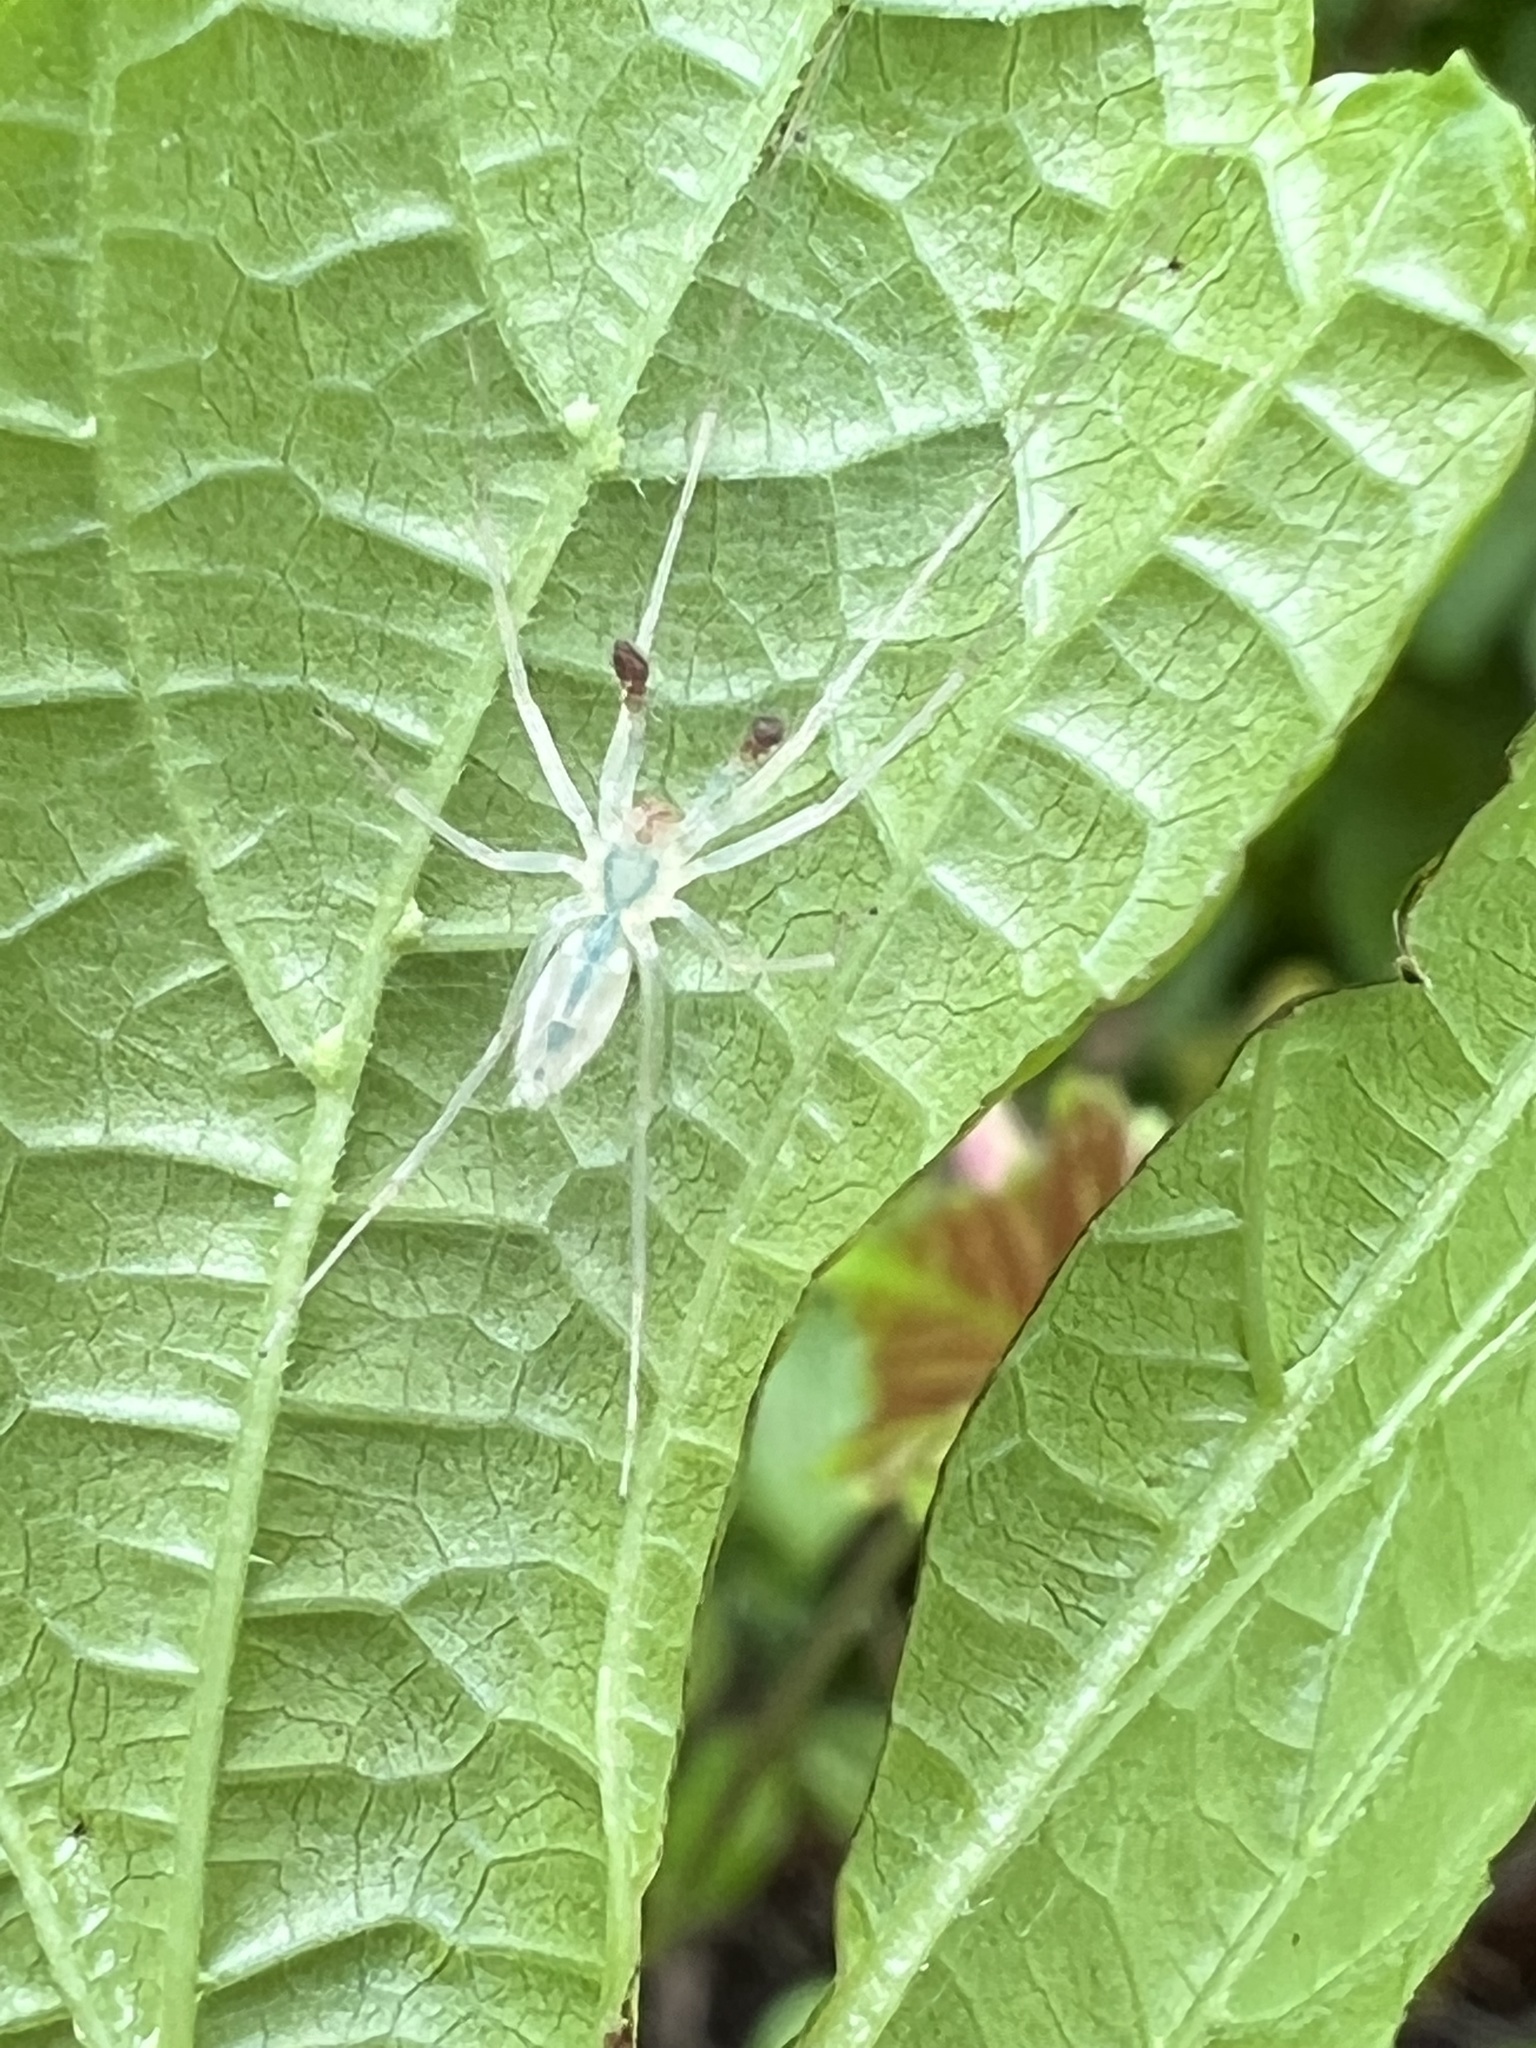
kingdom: Animalia
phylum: Arthropoda
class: Arachnida
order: Araneae
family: Anyphaenidae
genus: Wulfila
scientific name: Wulfila albens
